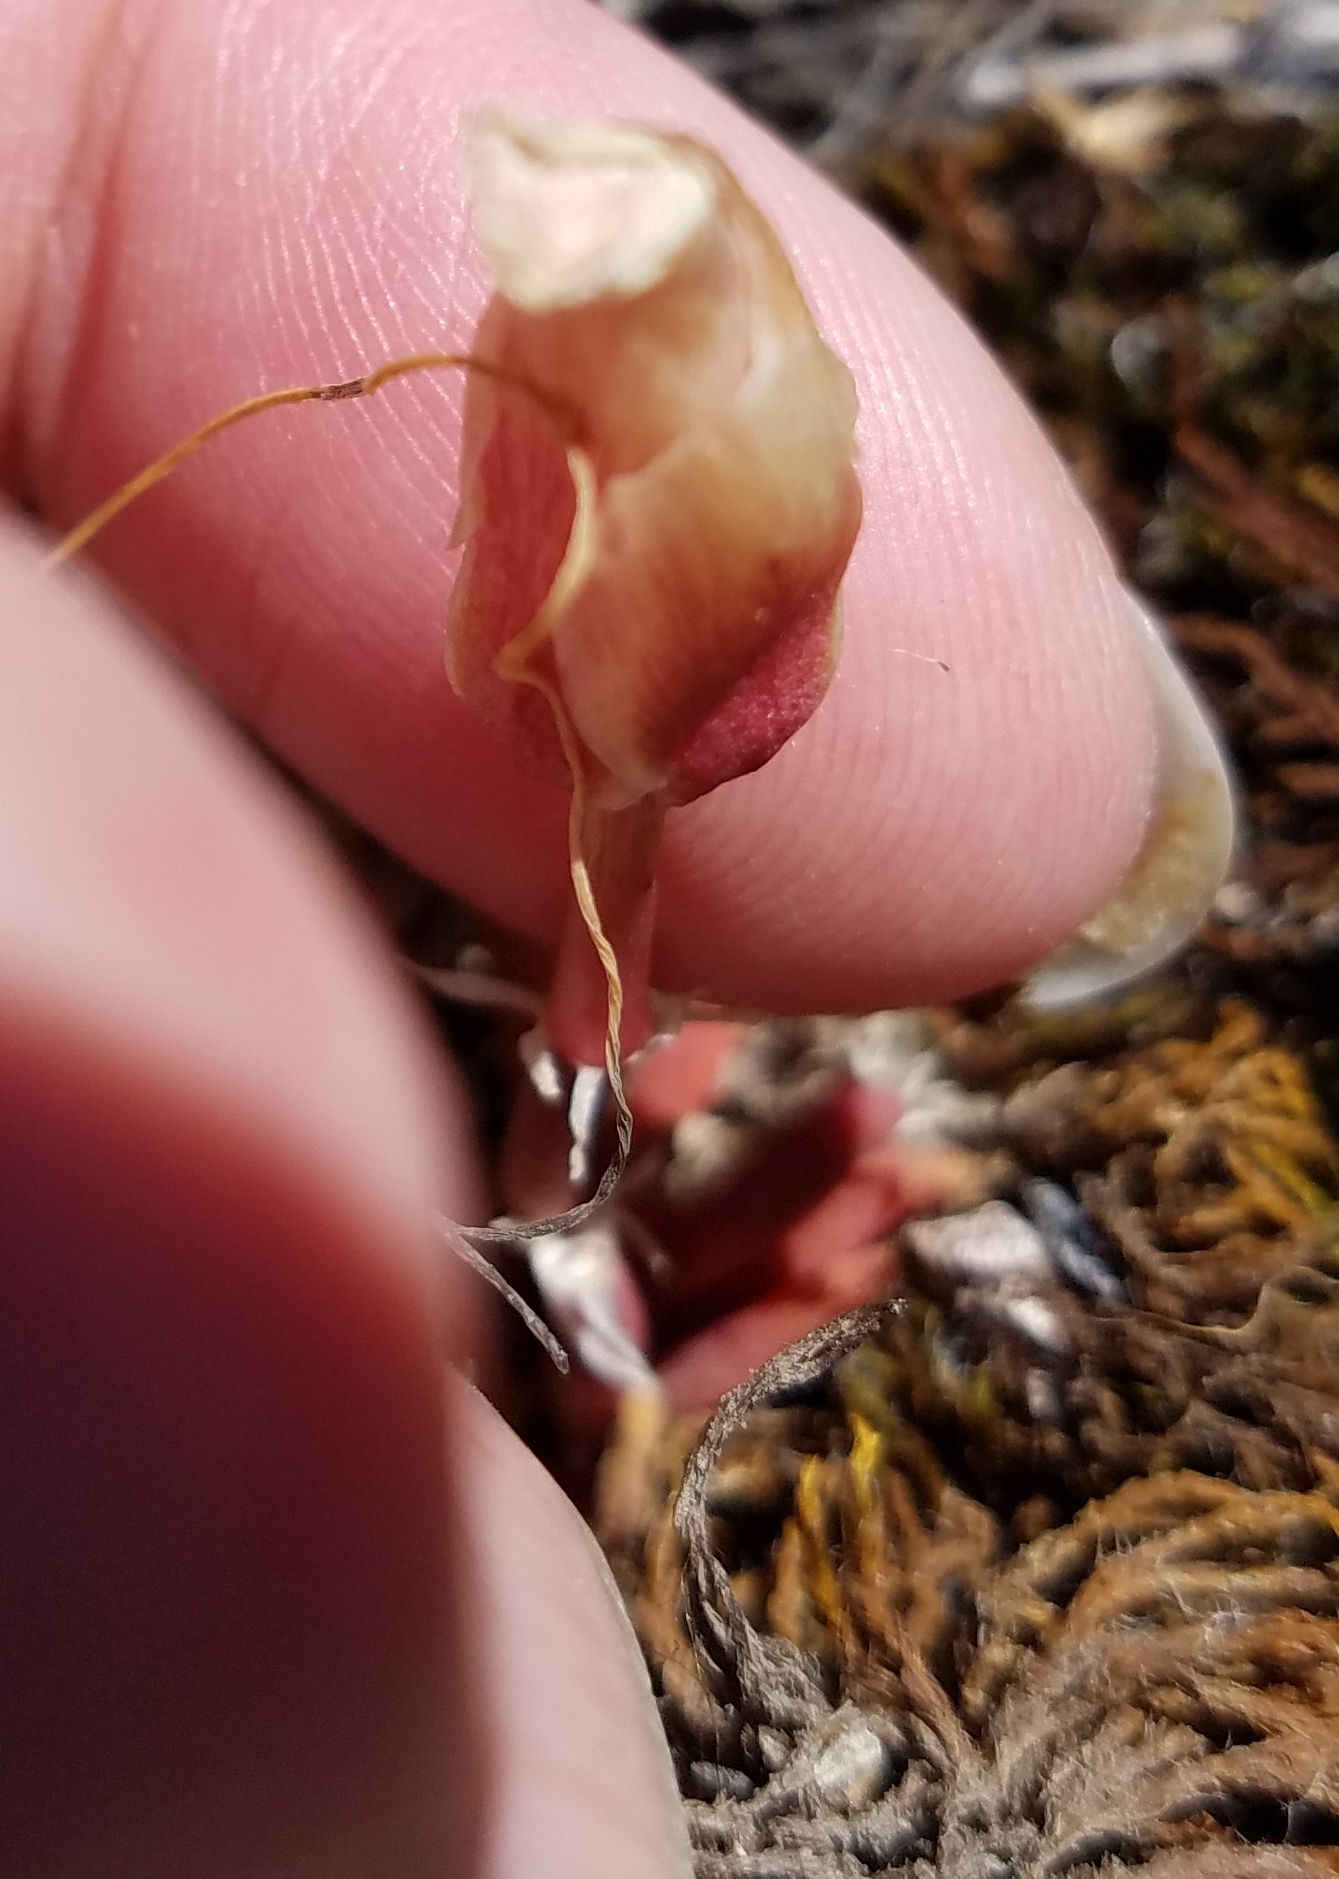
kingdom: Plantae
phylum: Tracheophyta
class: Magnoliopsida
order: Caryophyllales
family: Montiaceae
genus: Lewisia
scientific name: Lewisia rediviva
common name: Bitter-root
